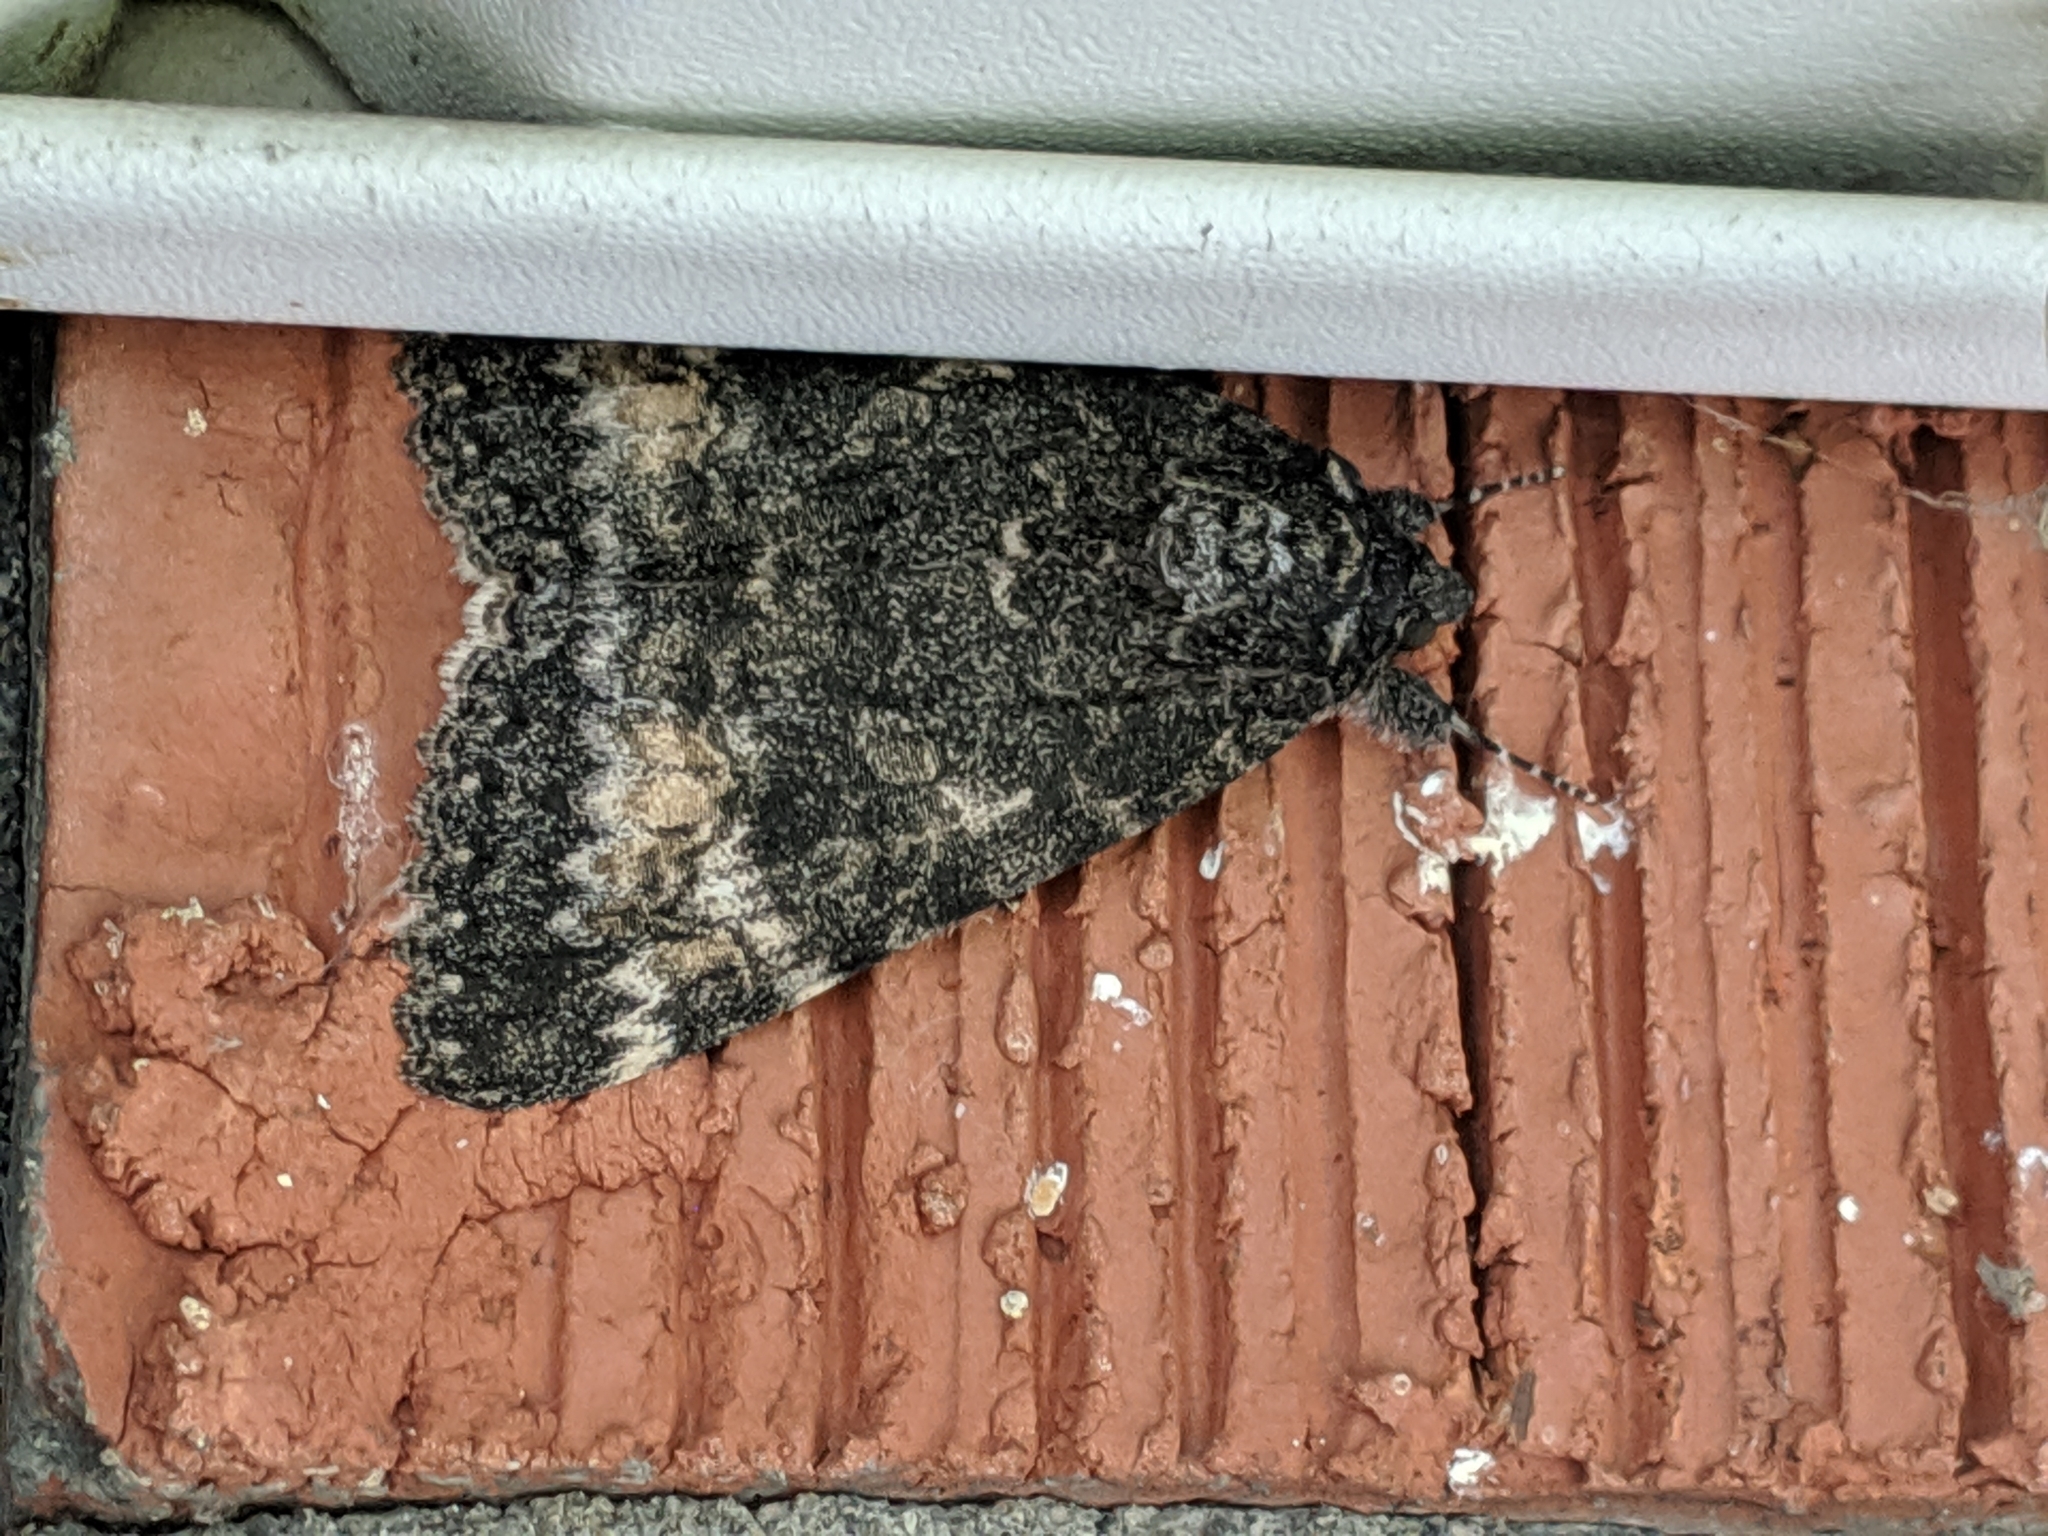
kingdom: Animalia
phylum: Arthropoda
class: Insecta
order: Lepidoptera
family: Erebidae
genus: Catocala
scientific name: Catocala briseis
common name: Briseis underwing
